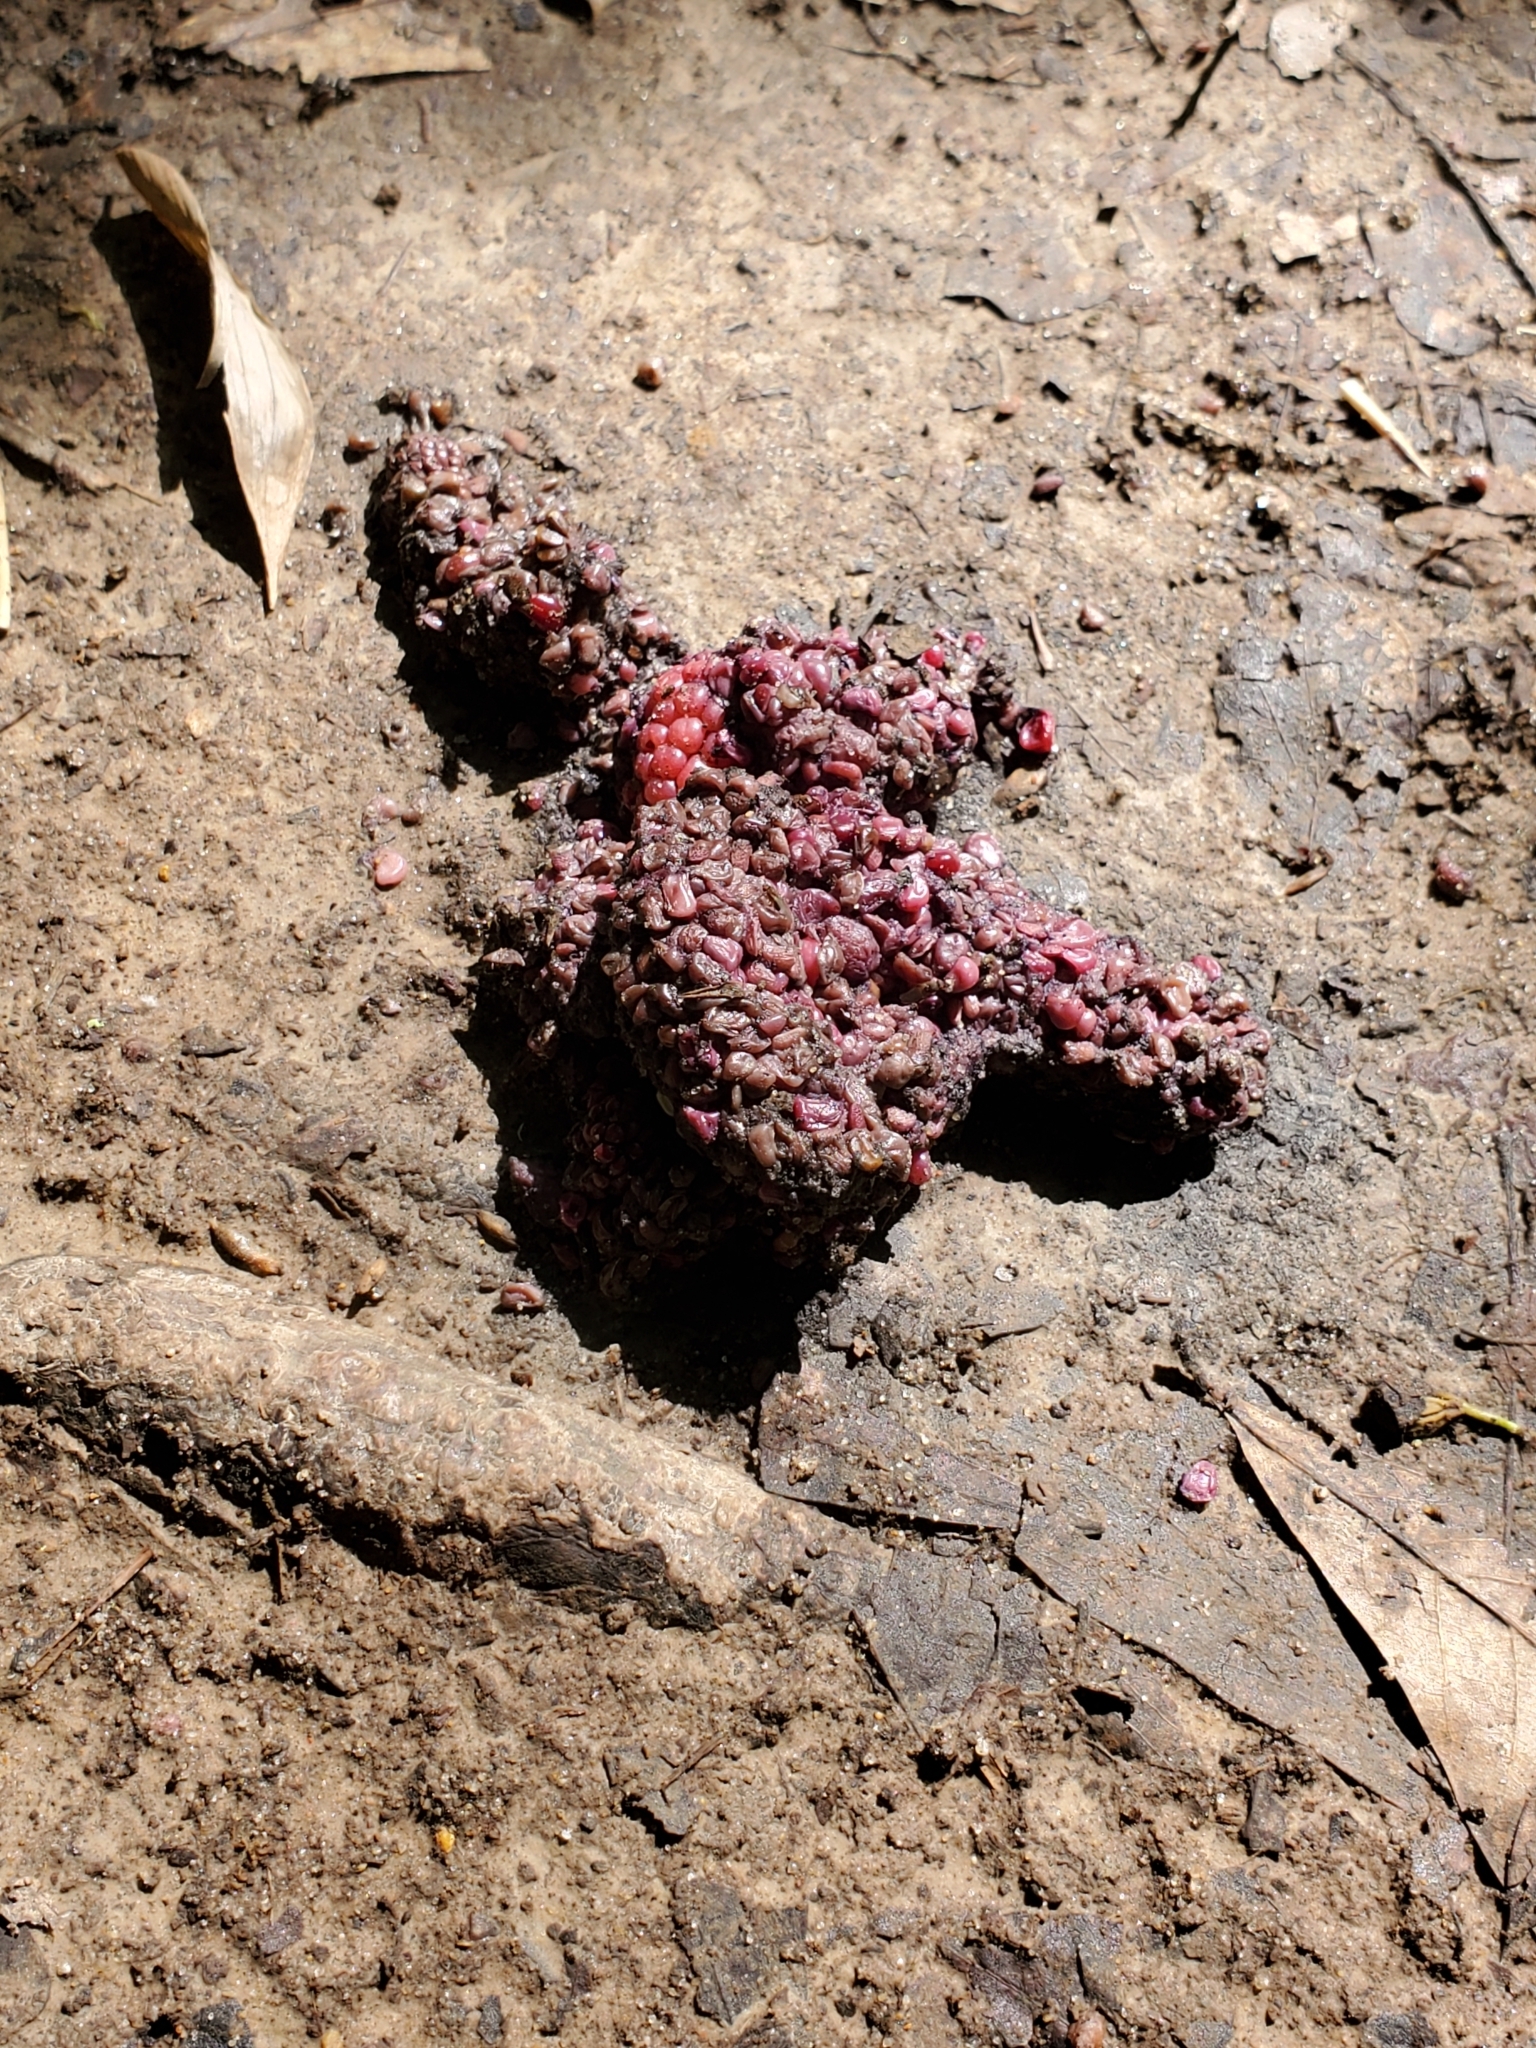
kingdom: Animalia
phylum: Chordata
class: Mammalia
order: Carnivora
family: Procyonidae
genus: Procyon
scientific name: Procyon lotor
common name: Raccoon
